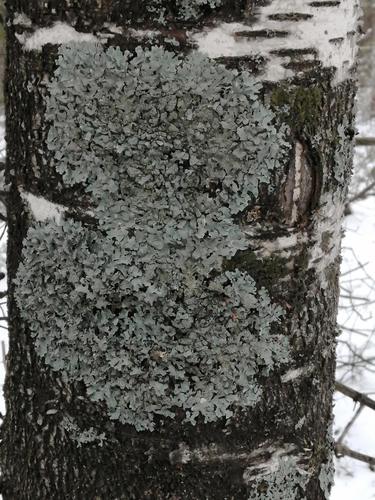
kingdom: Fungi
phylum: Ascomycota
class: Lecanoromycetes
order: Lecanorales
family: Parmeliaceae
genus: Parmelia
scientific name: Parmelia sulcata
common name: Netted shield lichen
